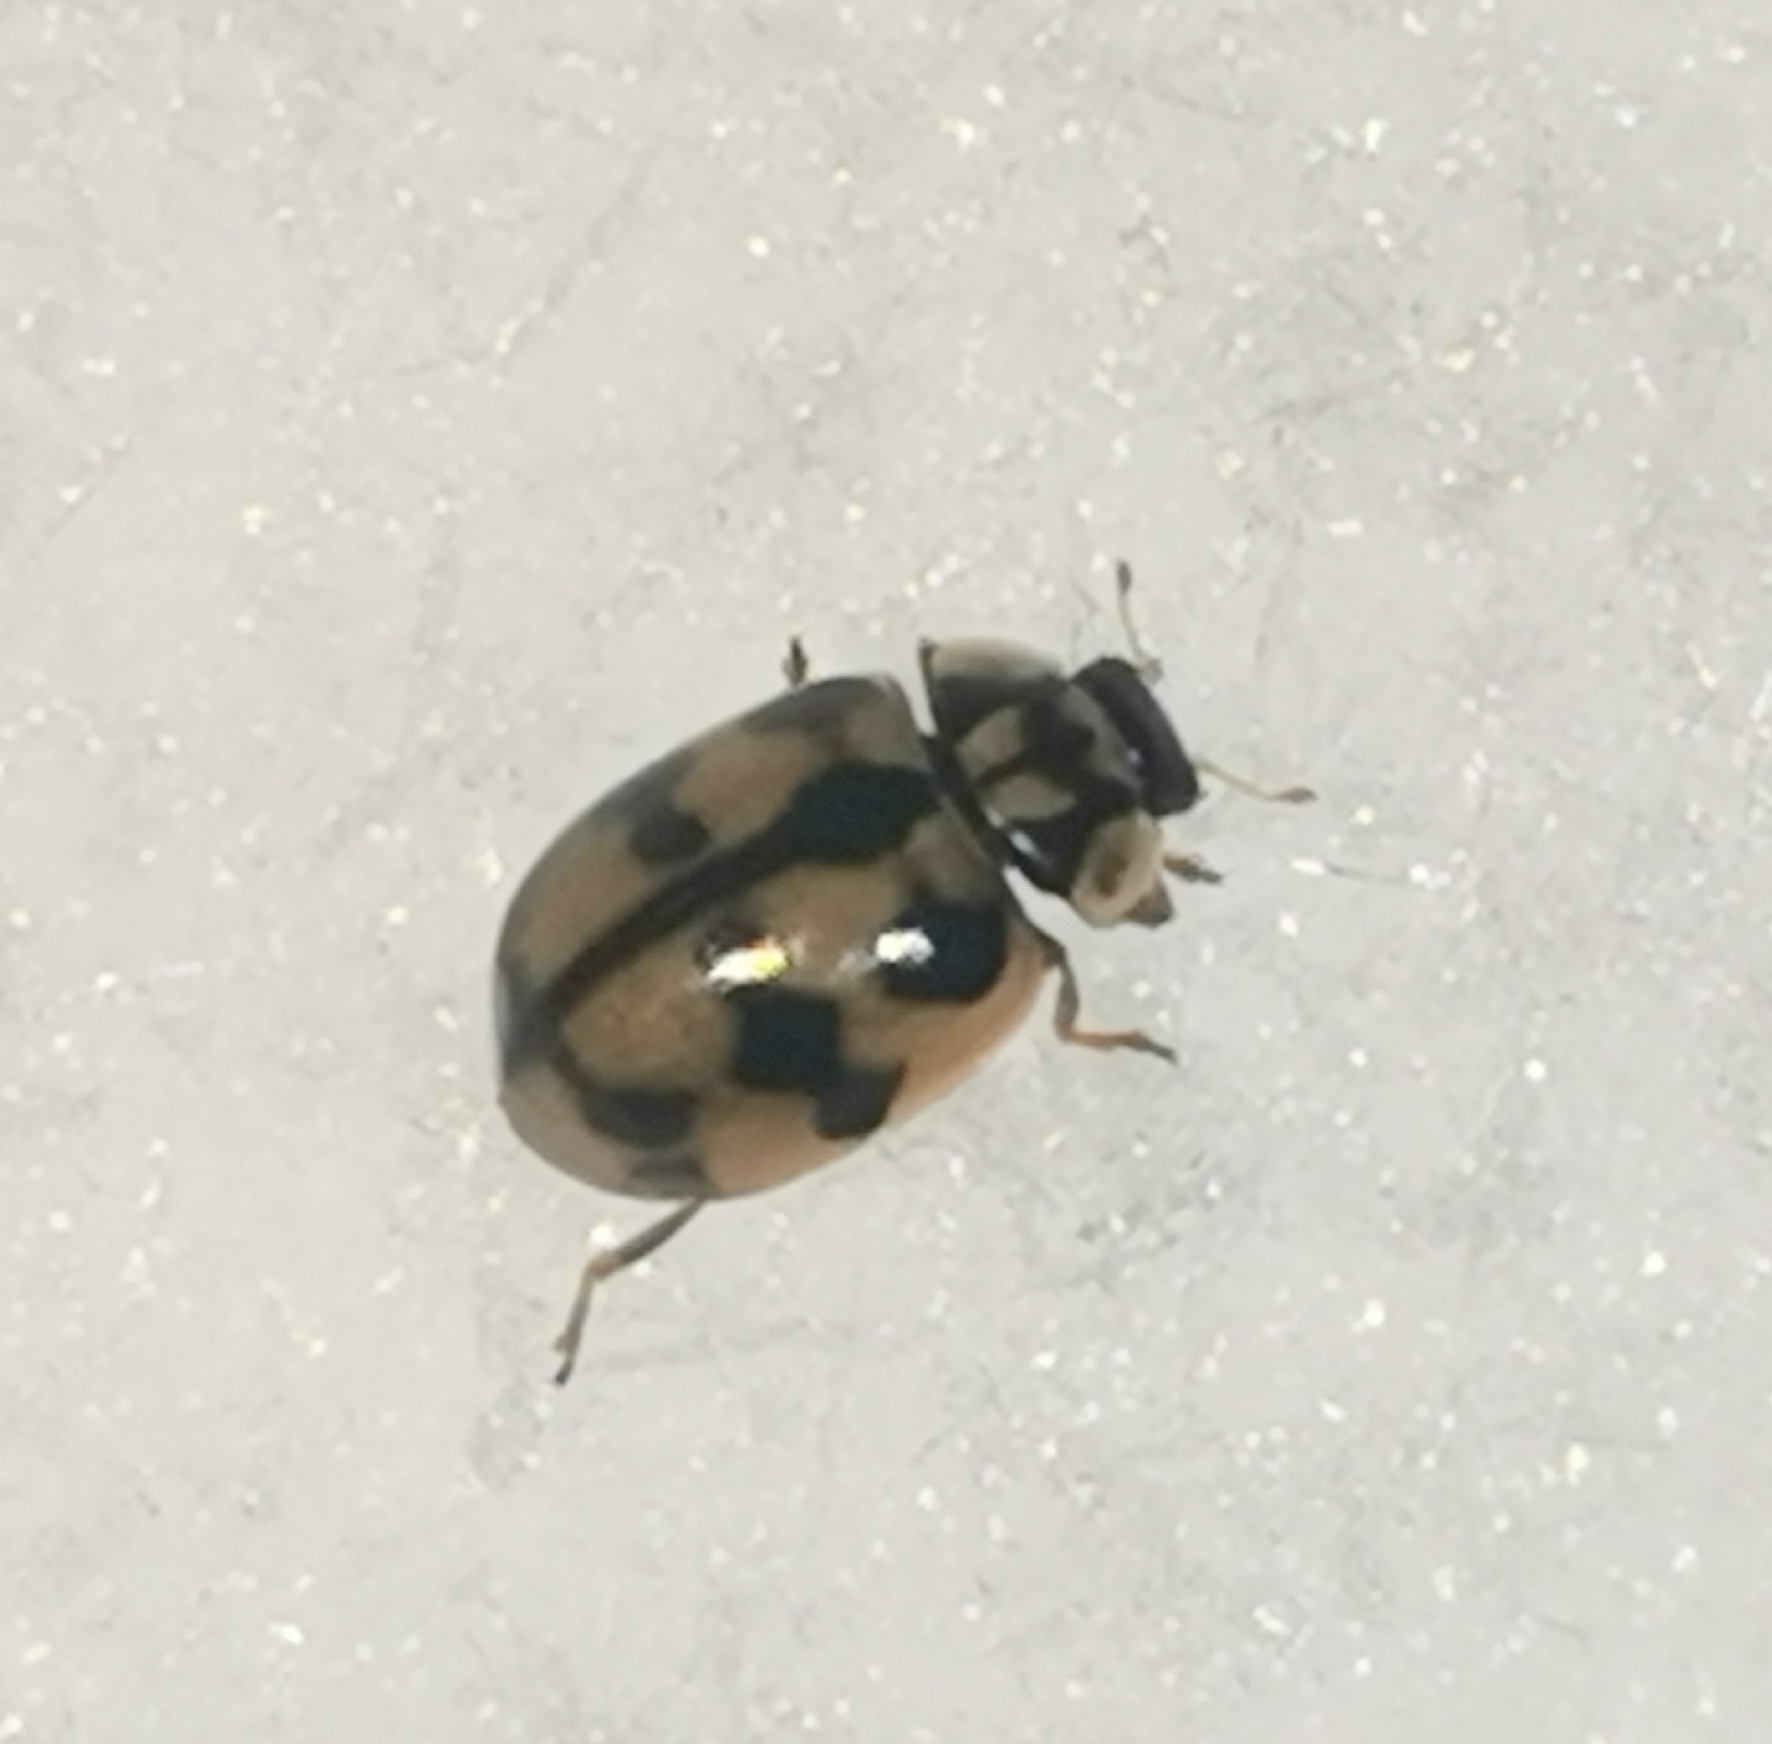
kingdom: Animalia
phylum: Arthropoda
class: Insecta
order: Coleoptera
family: Coccinellidae
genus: Adalia
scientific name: Adalia conglomerata
